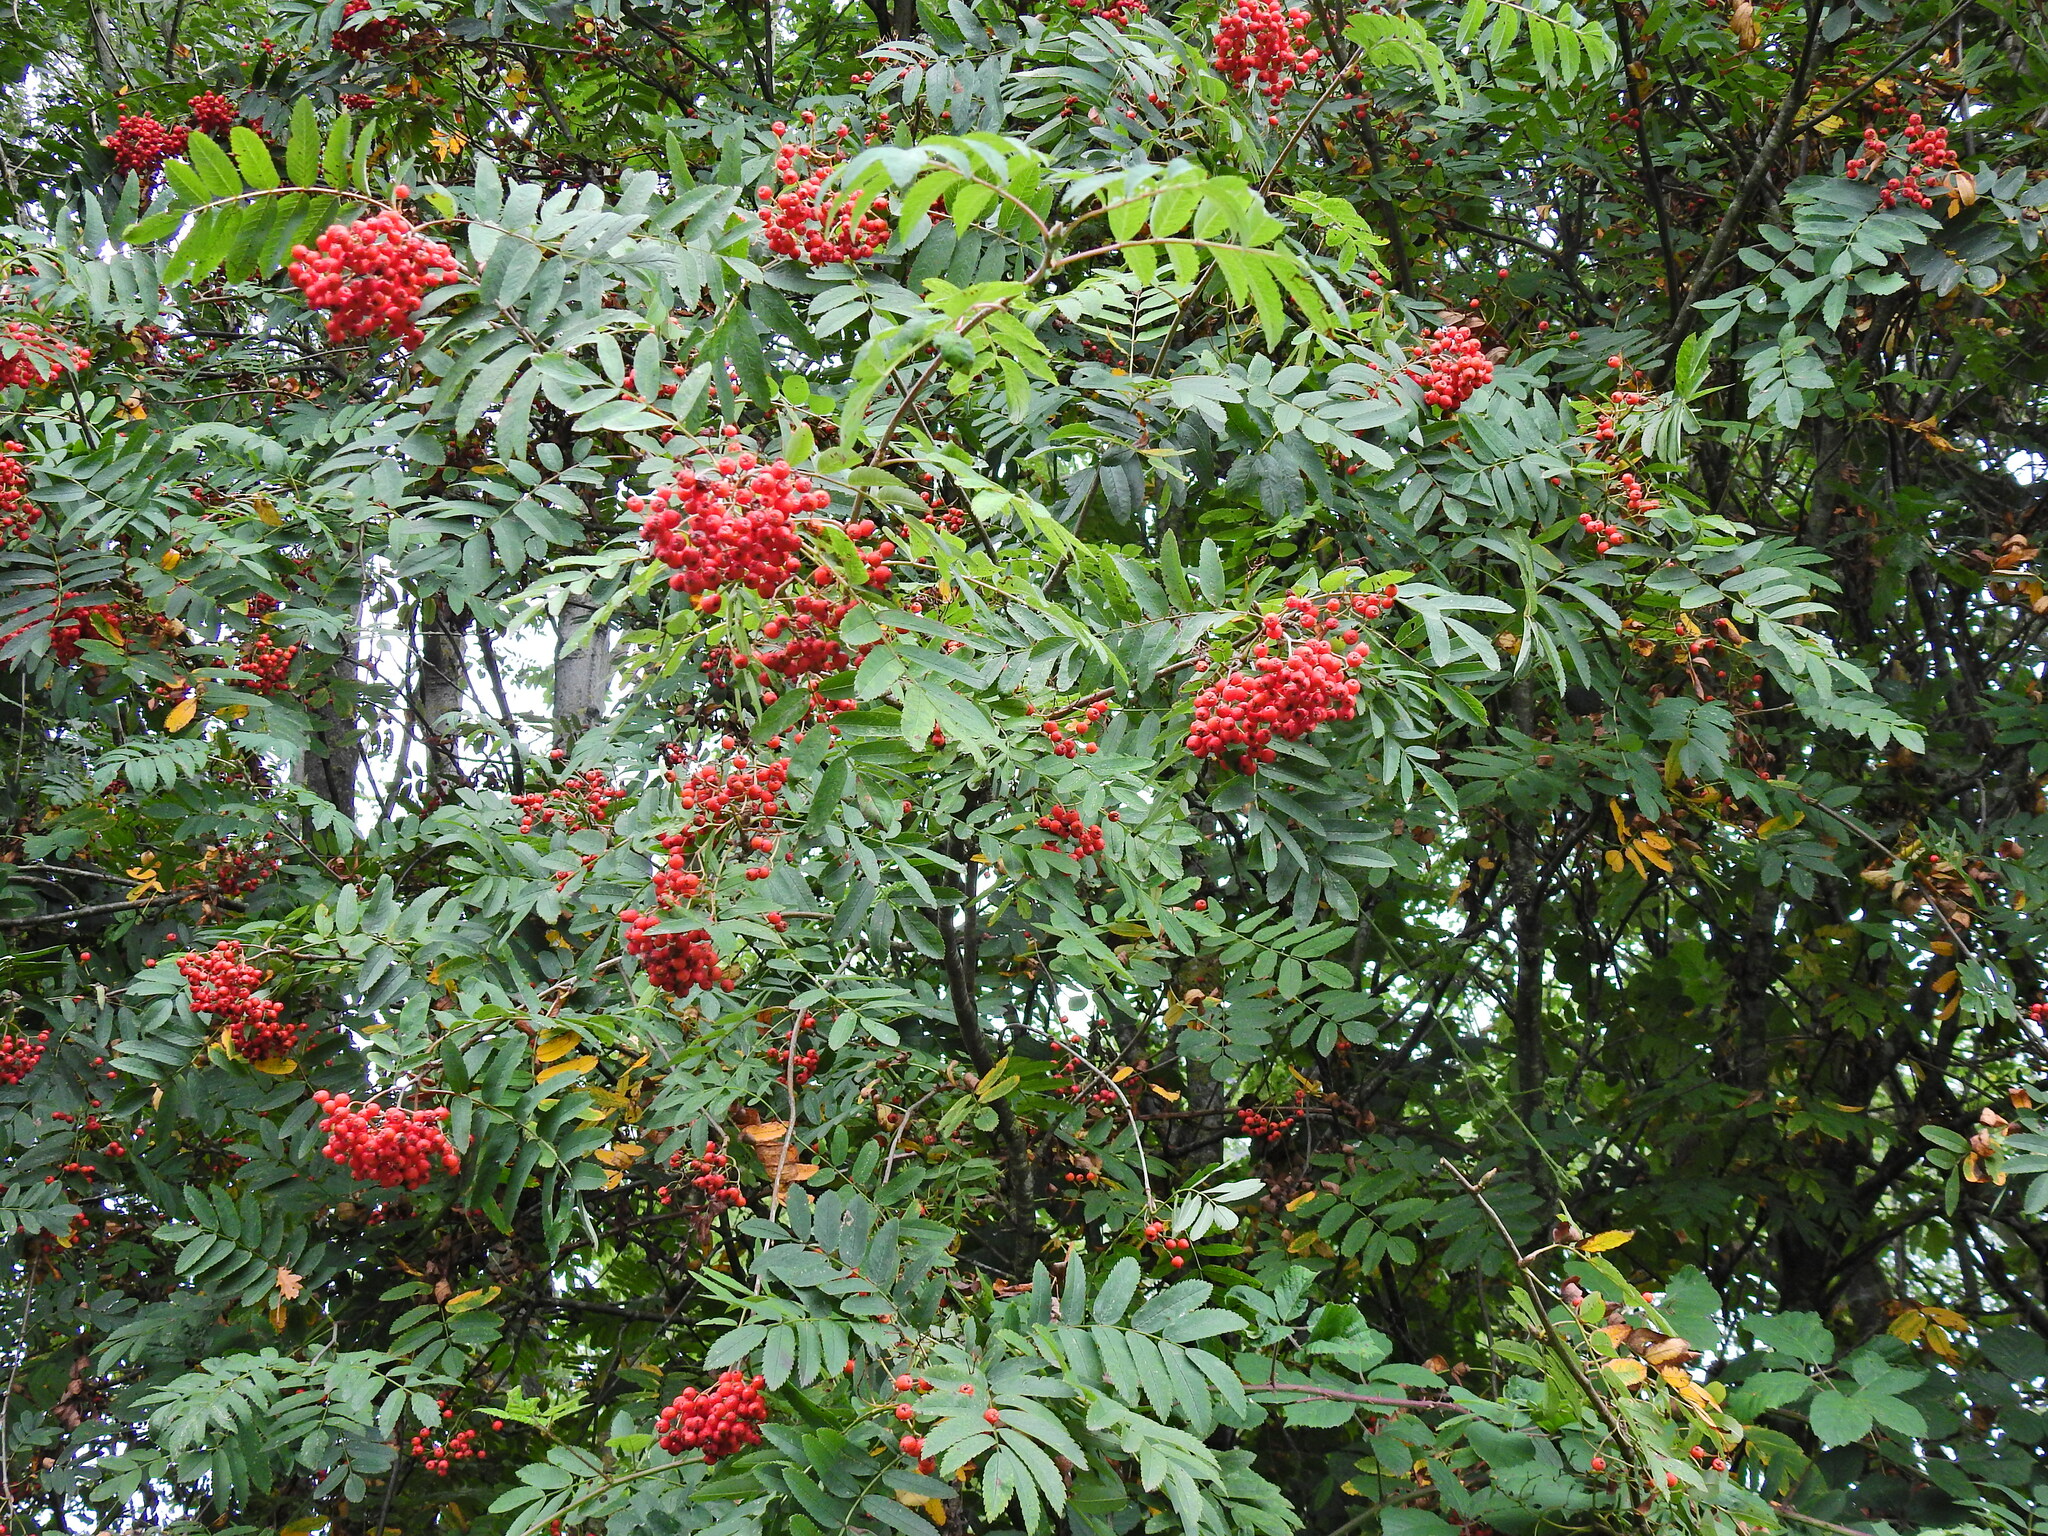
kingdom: Plantae
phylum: Tracheophyta
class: Magnoliopsida
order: Rosales
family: Rosaceae
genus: Sorbus
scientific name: Sorbus aucuparia
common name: Rowan
